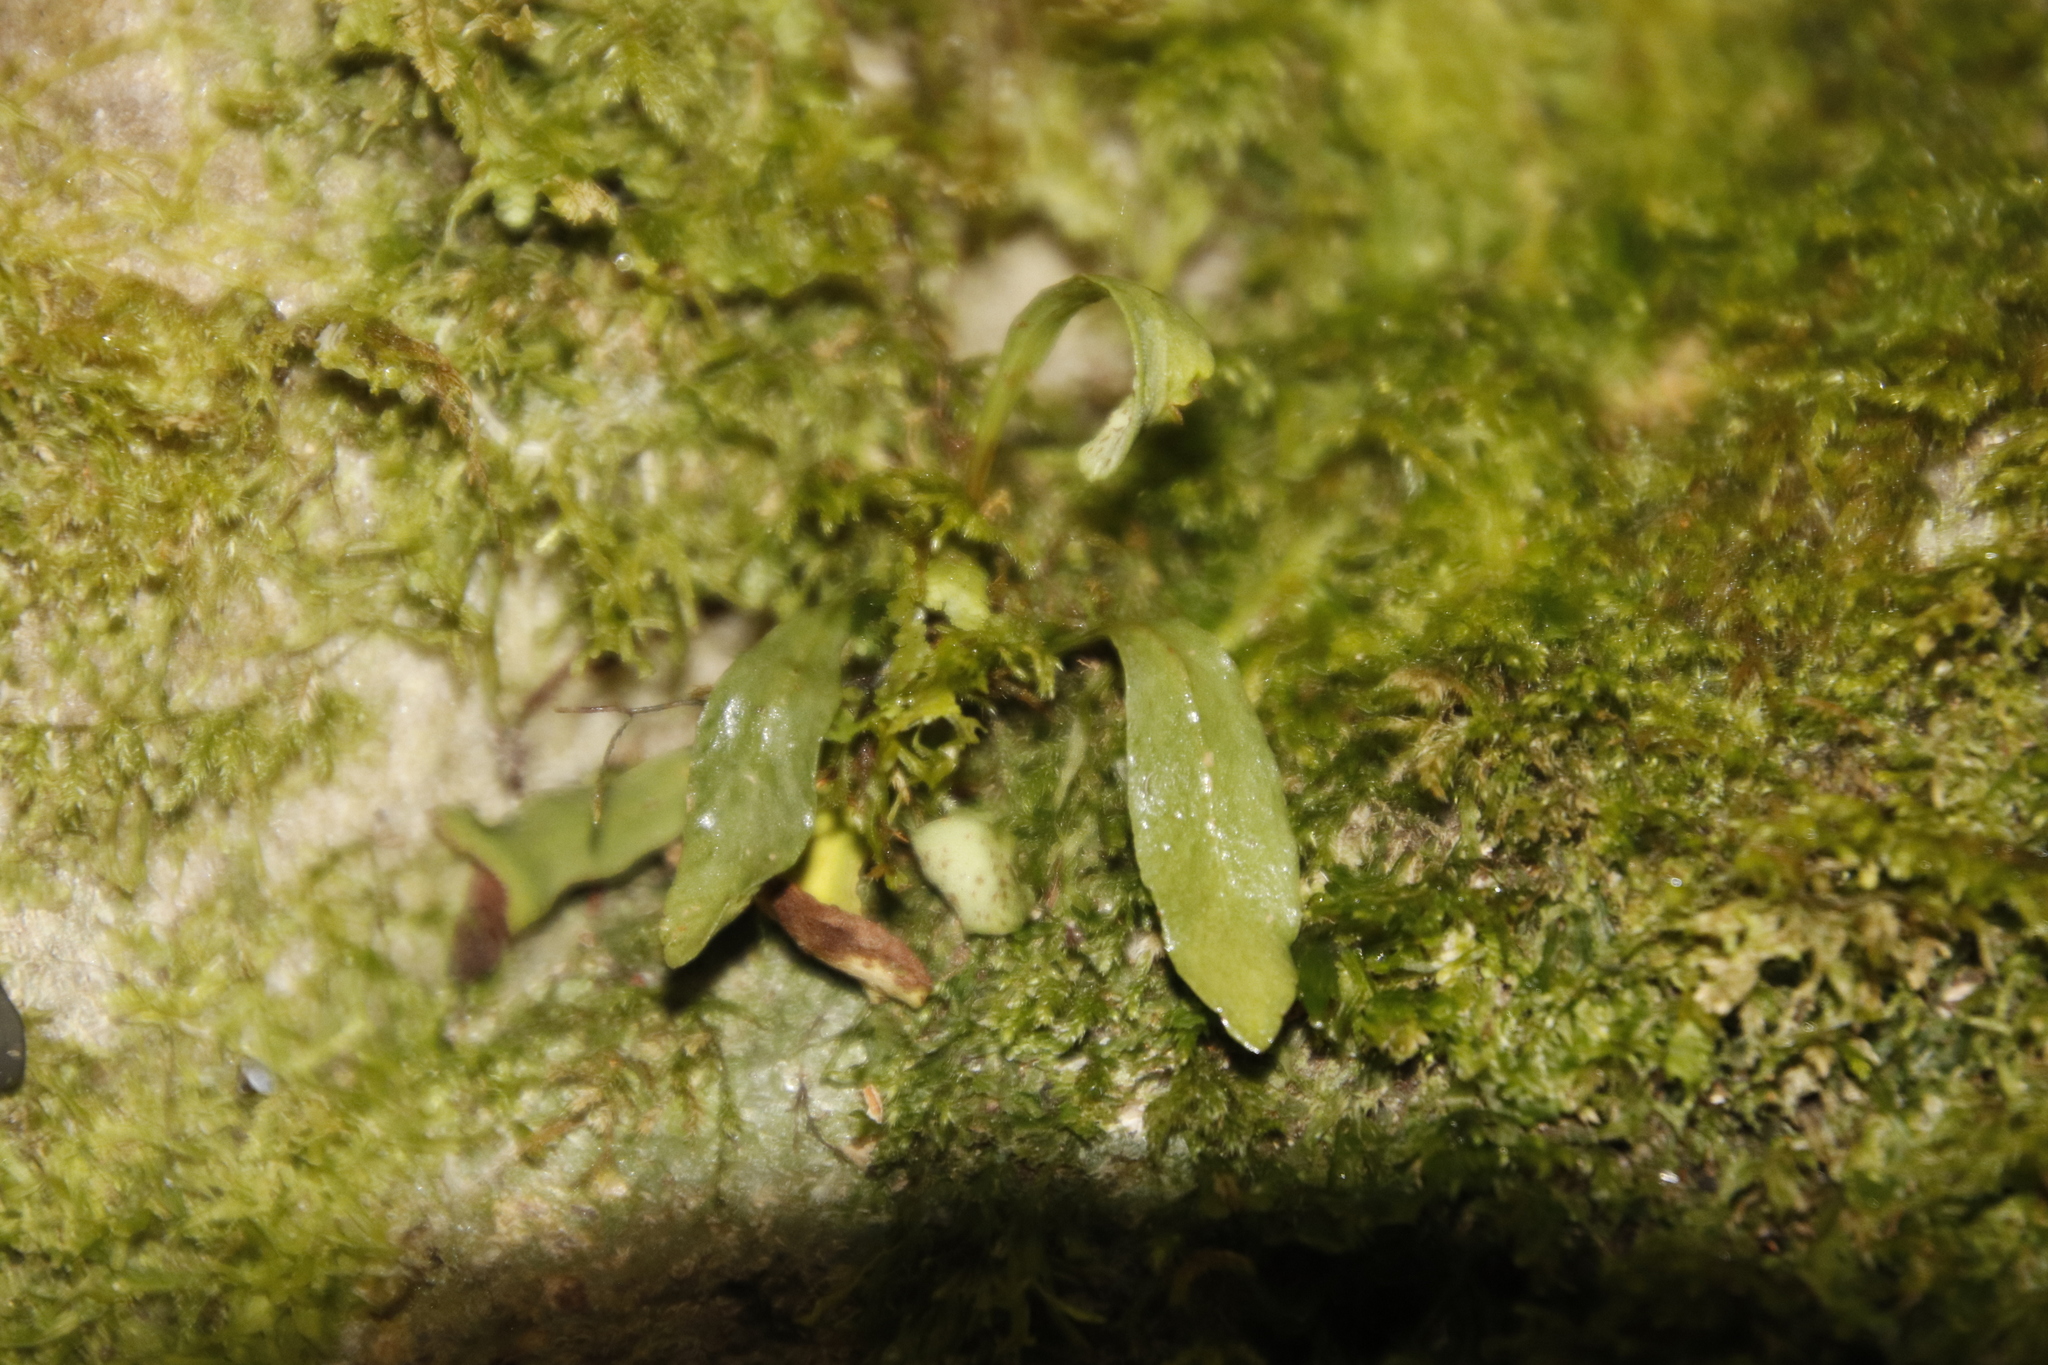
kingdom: Plantae
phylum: Tracheophyta
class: Polypodiopsida
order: Polypodiales
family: Polypodiaceae
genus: Pleopeltis
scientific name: Pleopeltis macrocarpa
